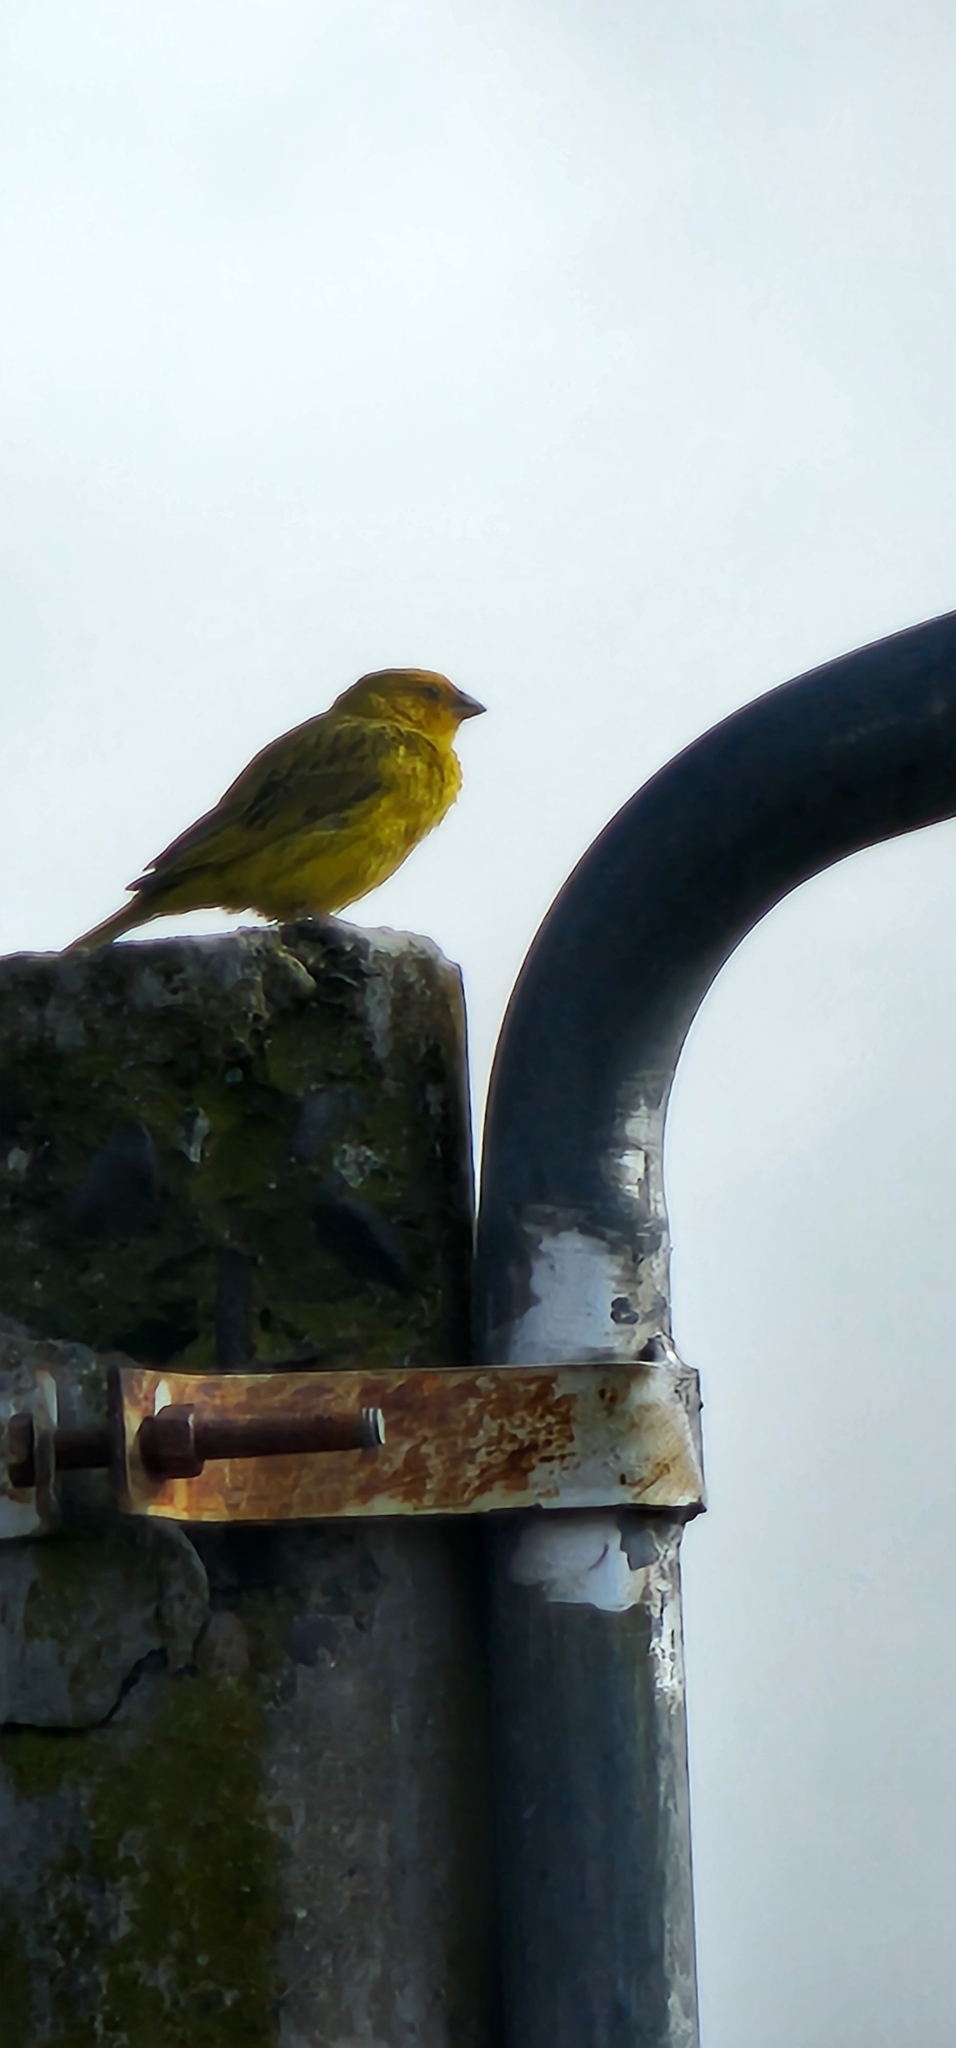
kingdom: Animalia
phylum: Chordata
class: Aves
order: Passeriformes
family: Thraupidae
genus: Sicalis
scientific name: Sicalis flaveola
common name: Saffron finch
